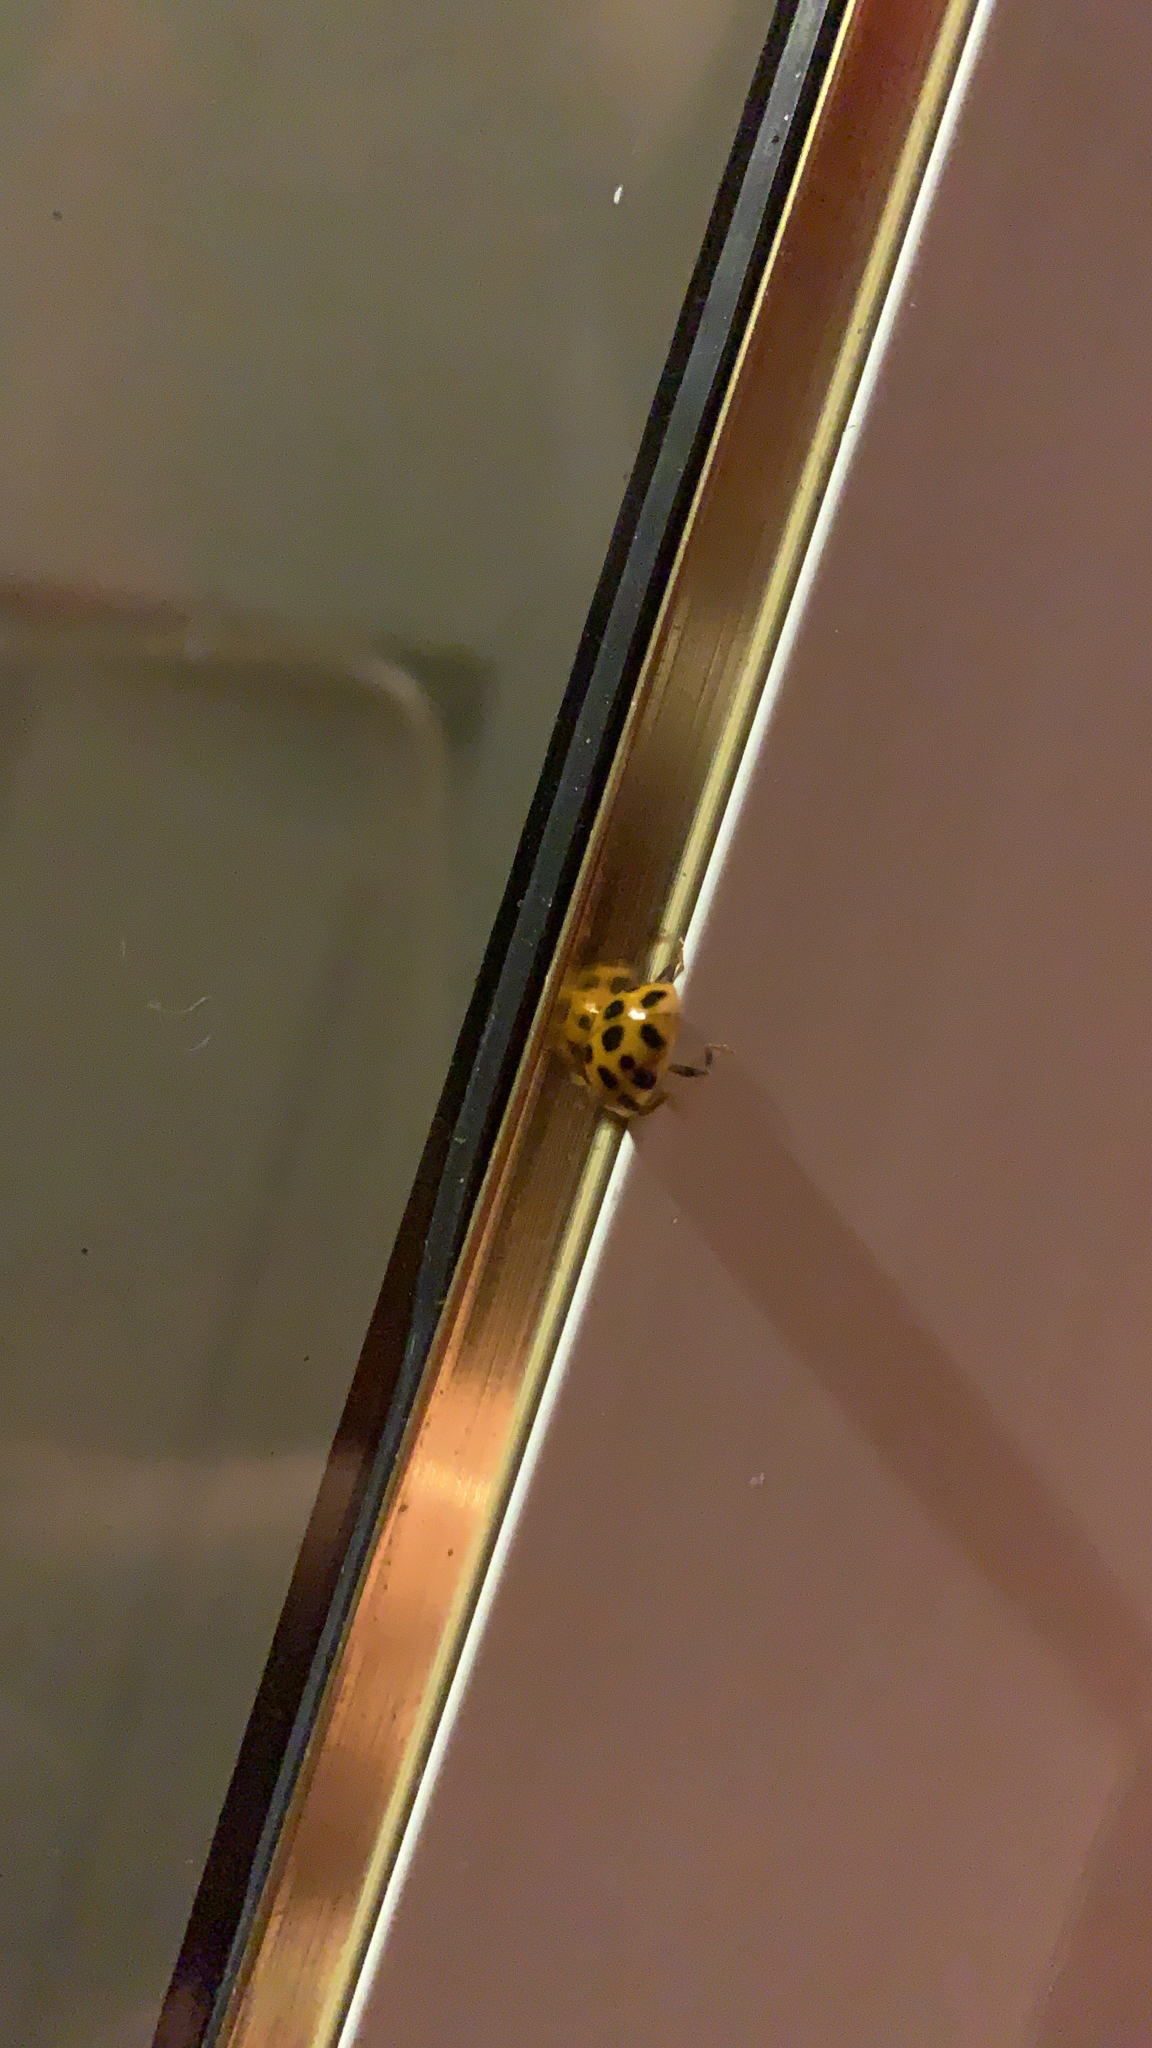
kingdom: Animalia
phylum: Arthropoda
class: Insecta
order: Coleoptera
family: Coccinellidae
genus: Harmonia
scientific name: Harmonia axyridis
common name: Harlequin ladybird
